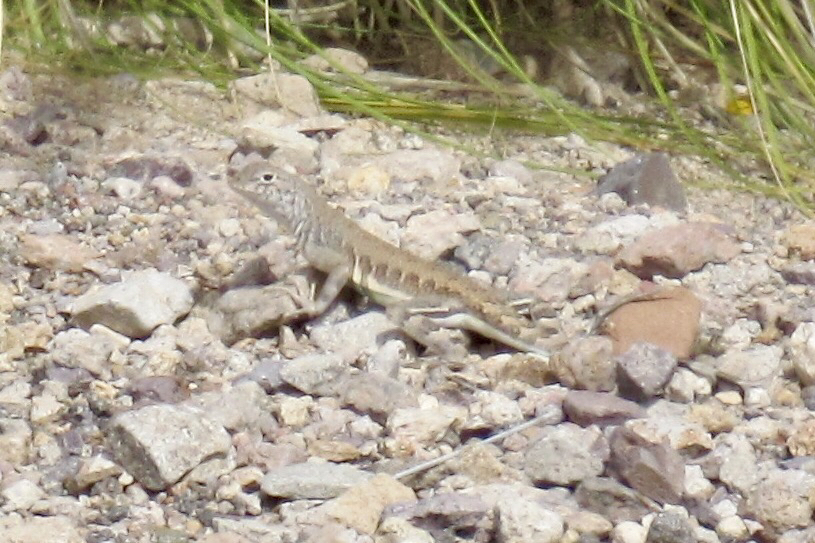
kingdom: Animalia
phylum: Chordata
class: Squamata
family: Phrynosomatidae
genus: Callisaurus
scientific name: Callisaurus draconoides
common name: Zebra-tailed lizard
